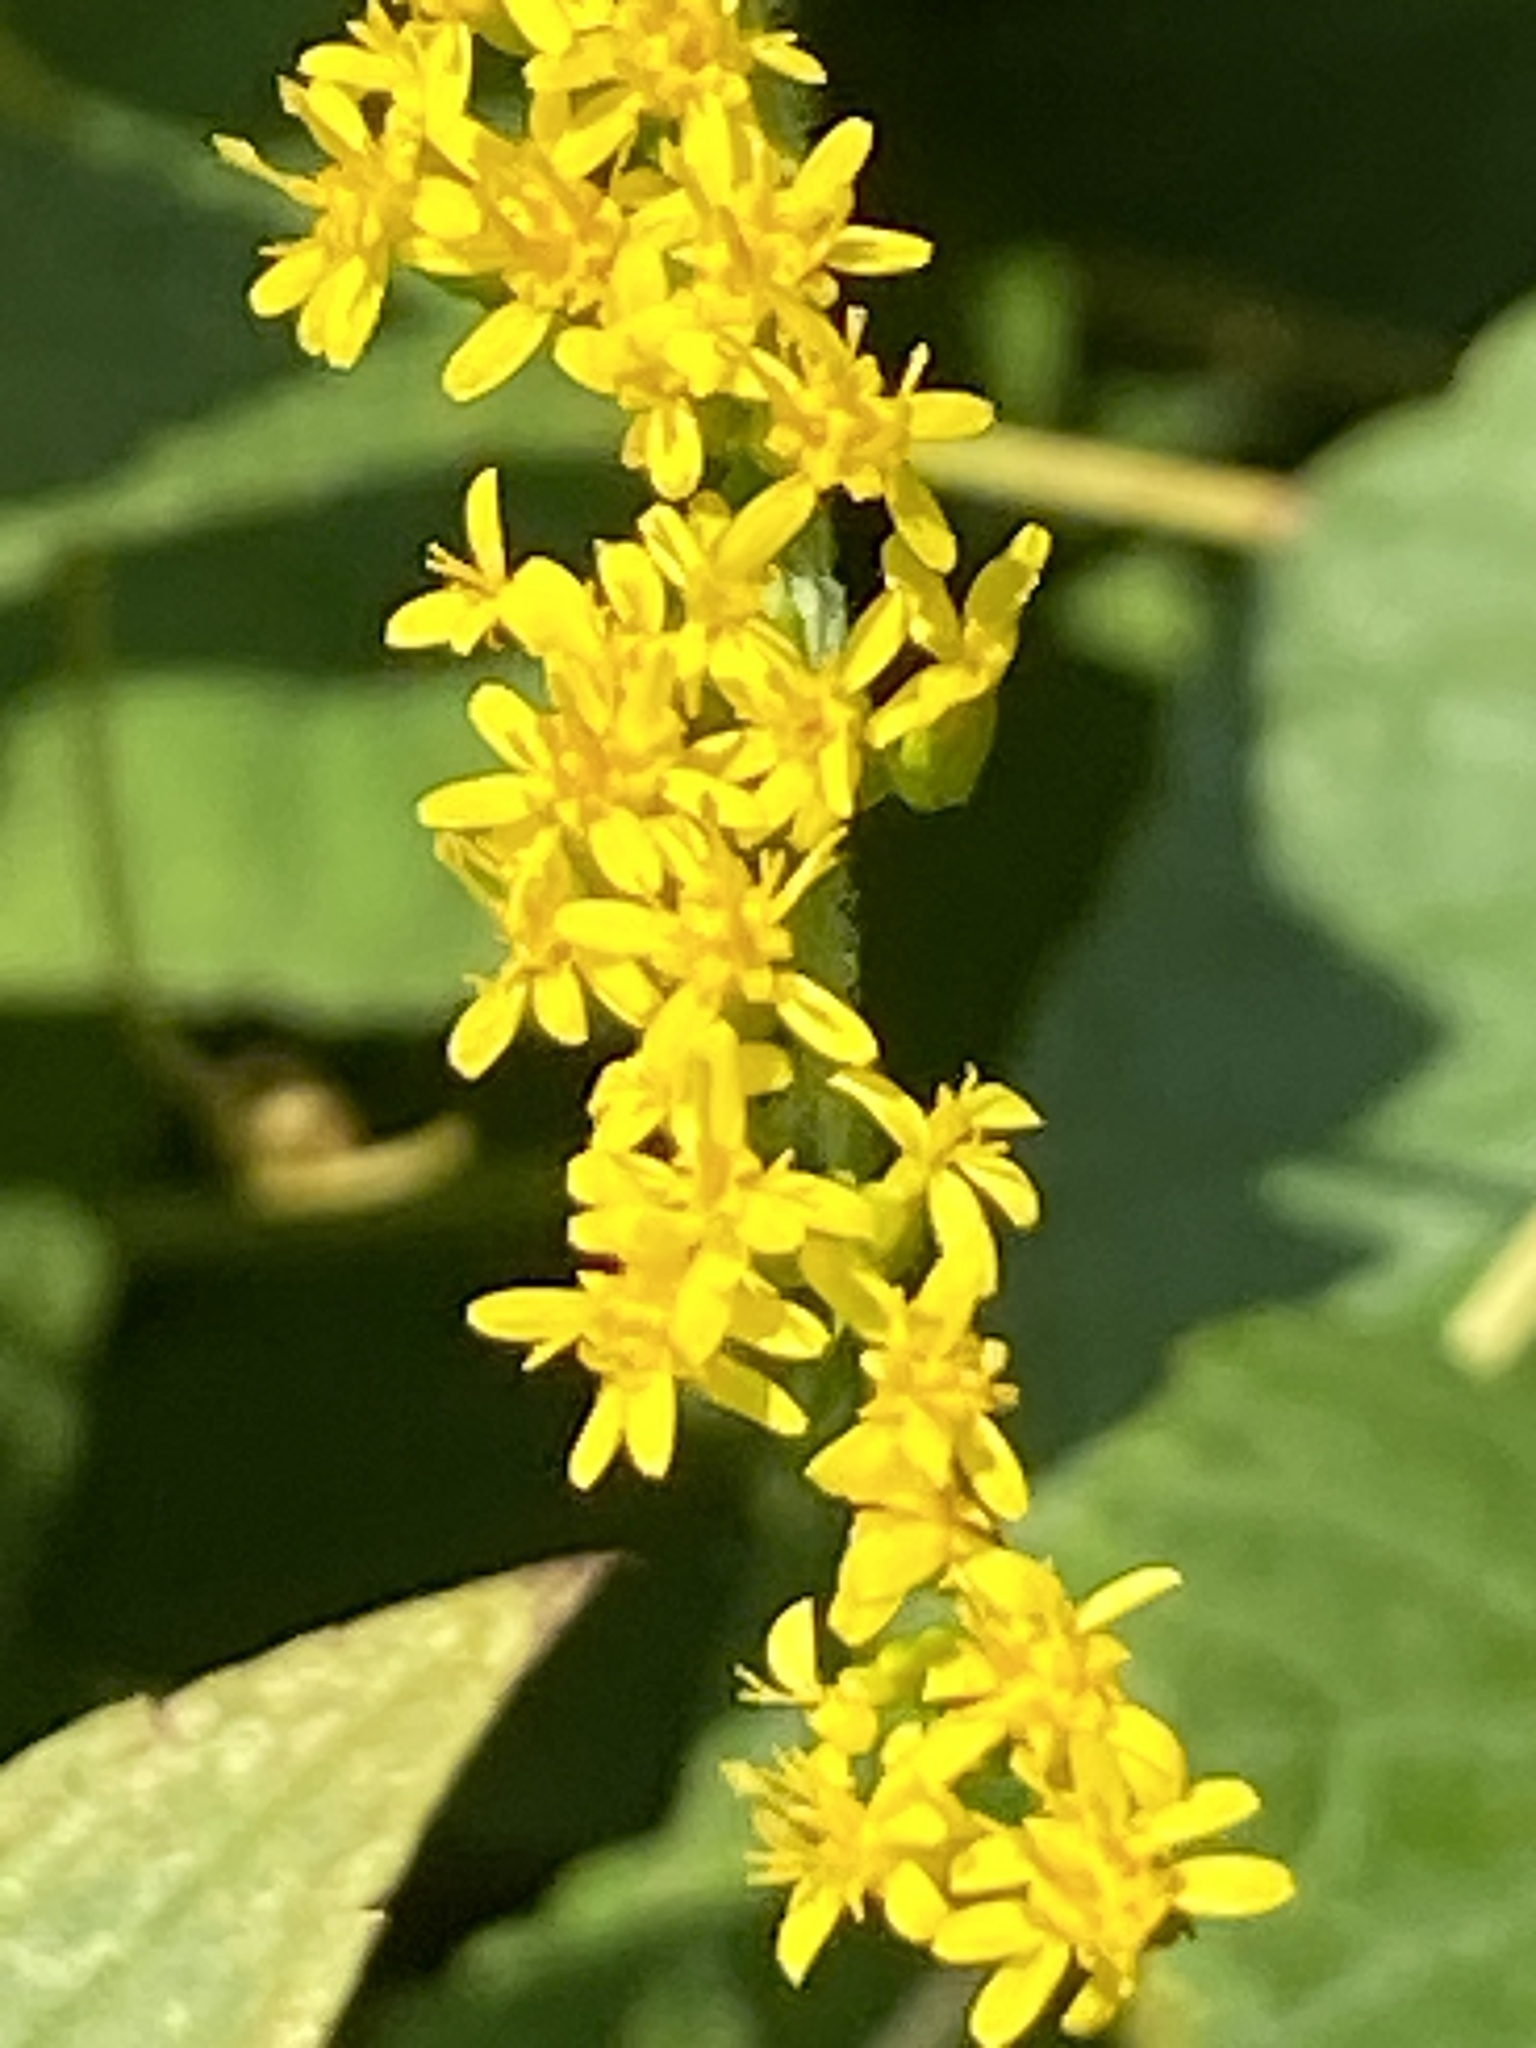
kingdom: Plantae
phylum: Tracheophyta
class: Magnoliopsida
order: Asterales
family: Asteraceae
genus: Solidago
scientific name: Solidago rugosa
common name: Rough-stemmed goldenrod
